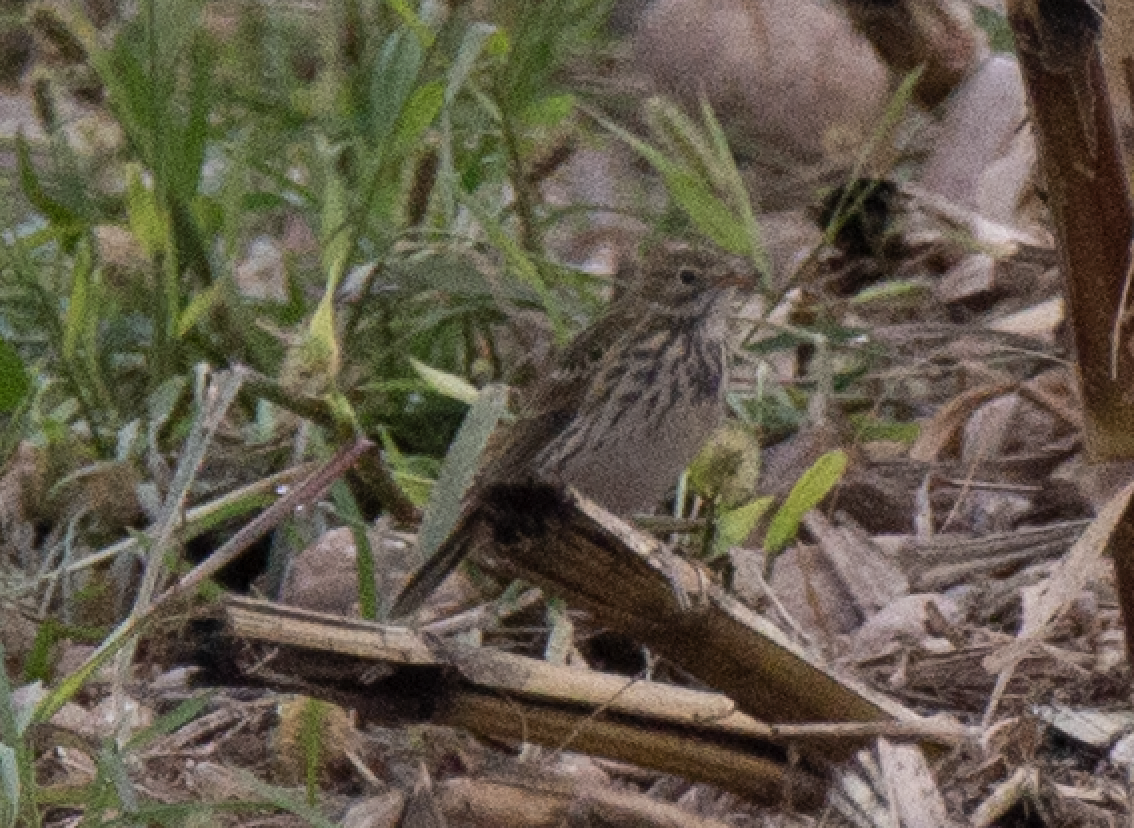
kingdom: Animalia
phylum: Chordata
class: Aves
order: Passeriformes
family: Motacillidae
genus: Anthus
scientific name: Anthus pratensis
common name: Meadow pipit
